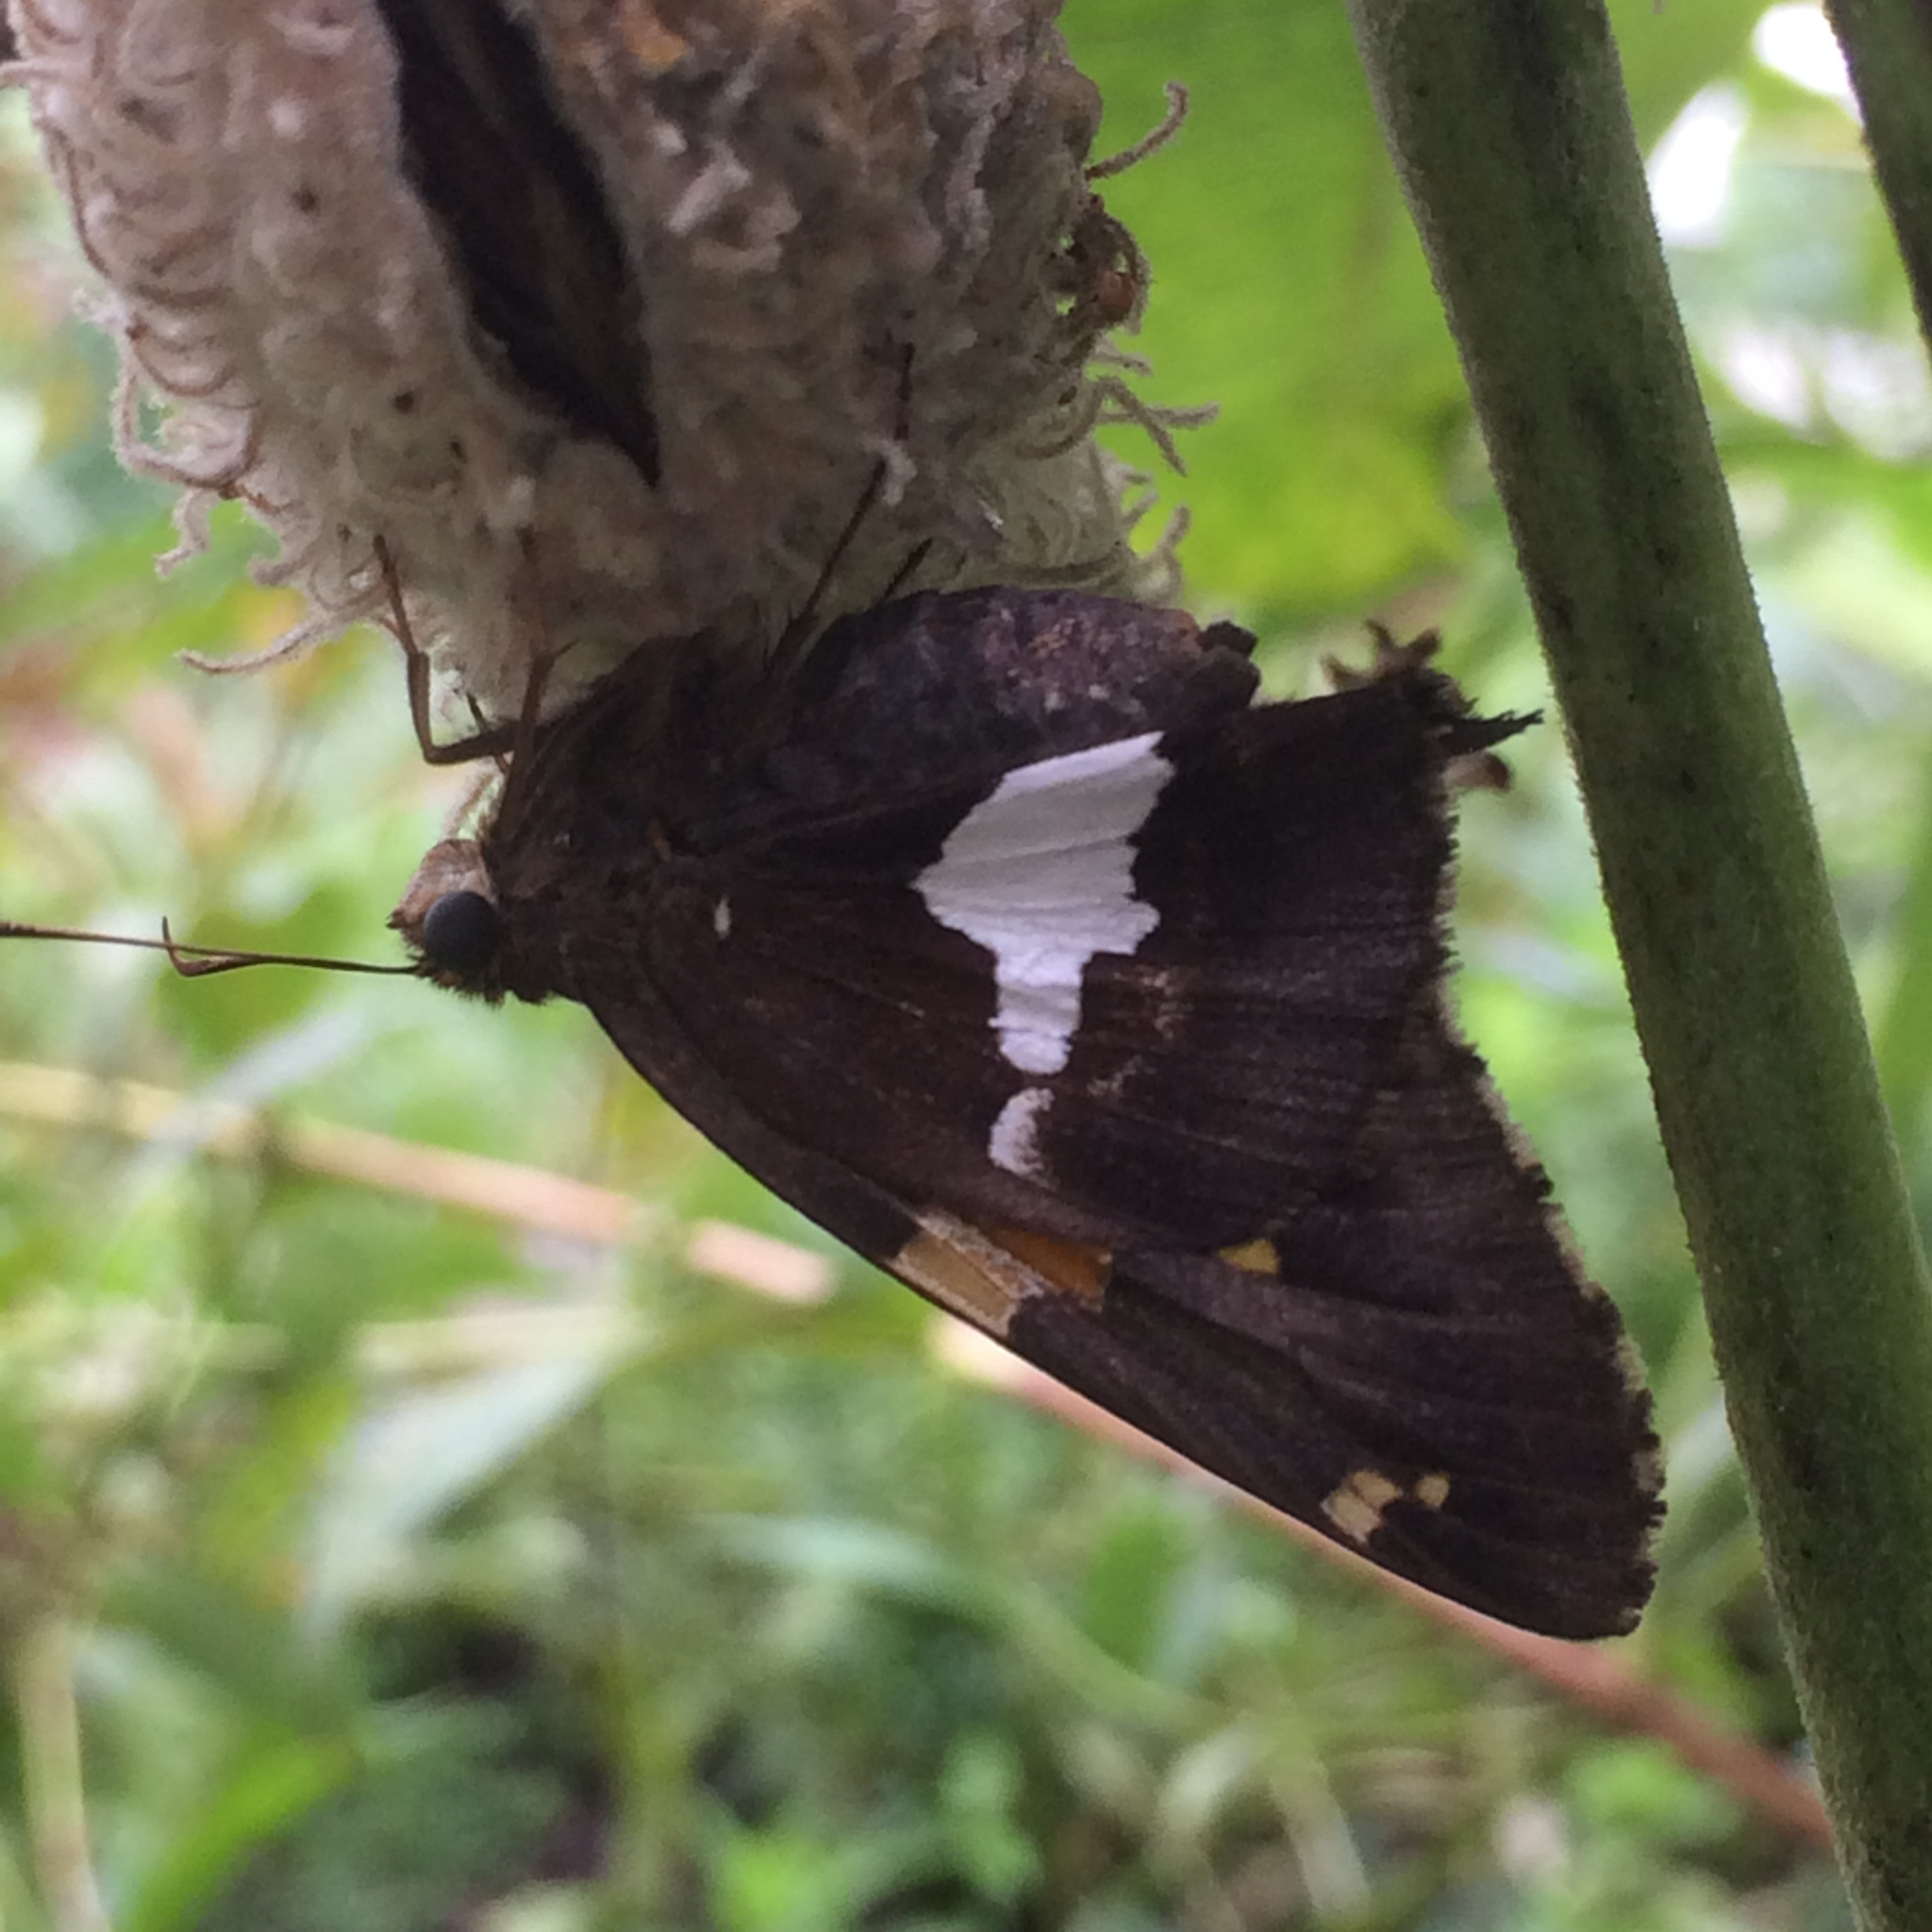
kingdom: Animalia
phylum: Arthropoda
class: Insecta
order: Lepidoptera
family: Hesperiidae
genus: Epargyreus
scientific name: Epargyreus clarus
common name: Silver-spotted skipper
